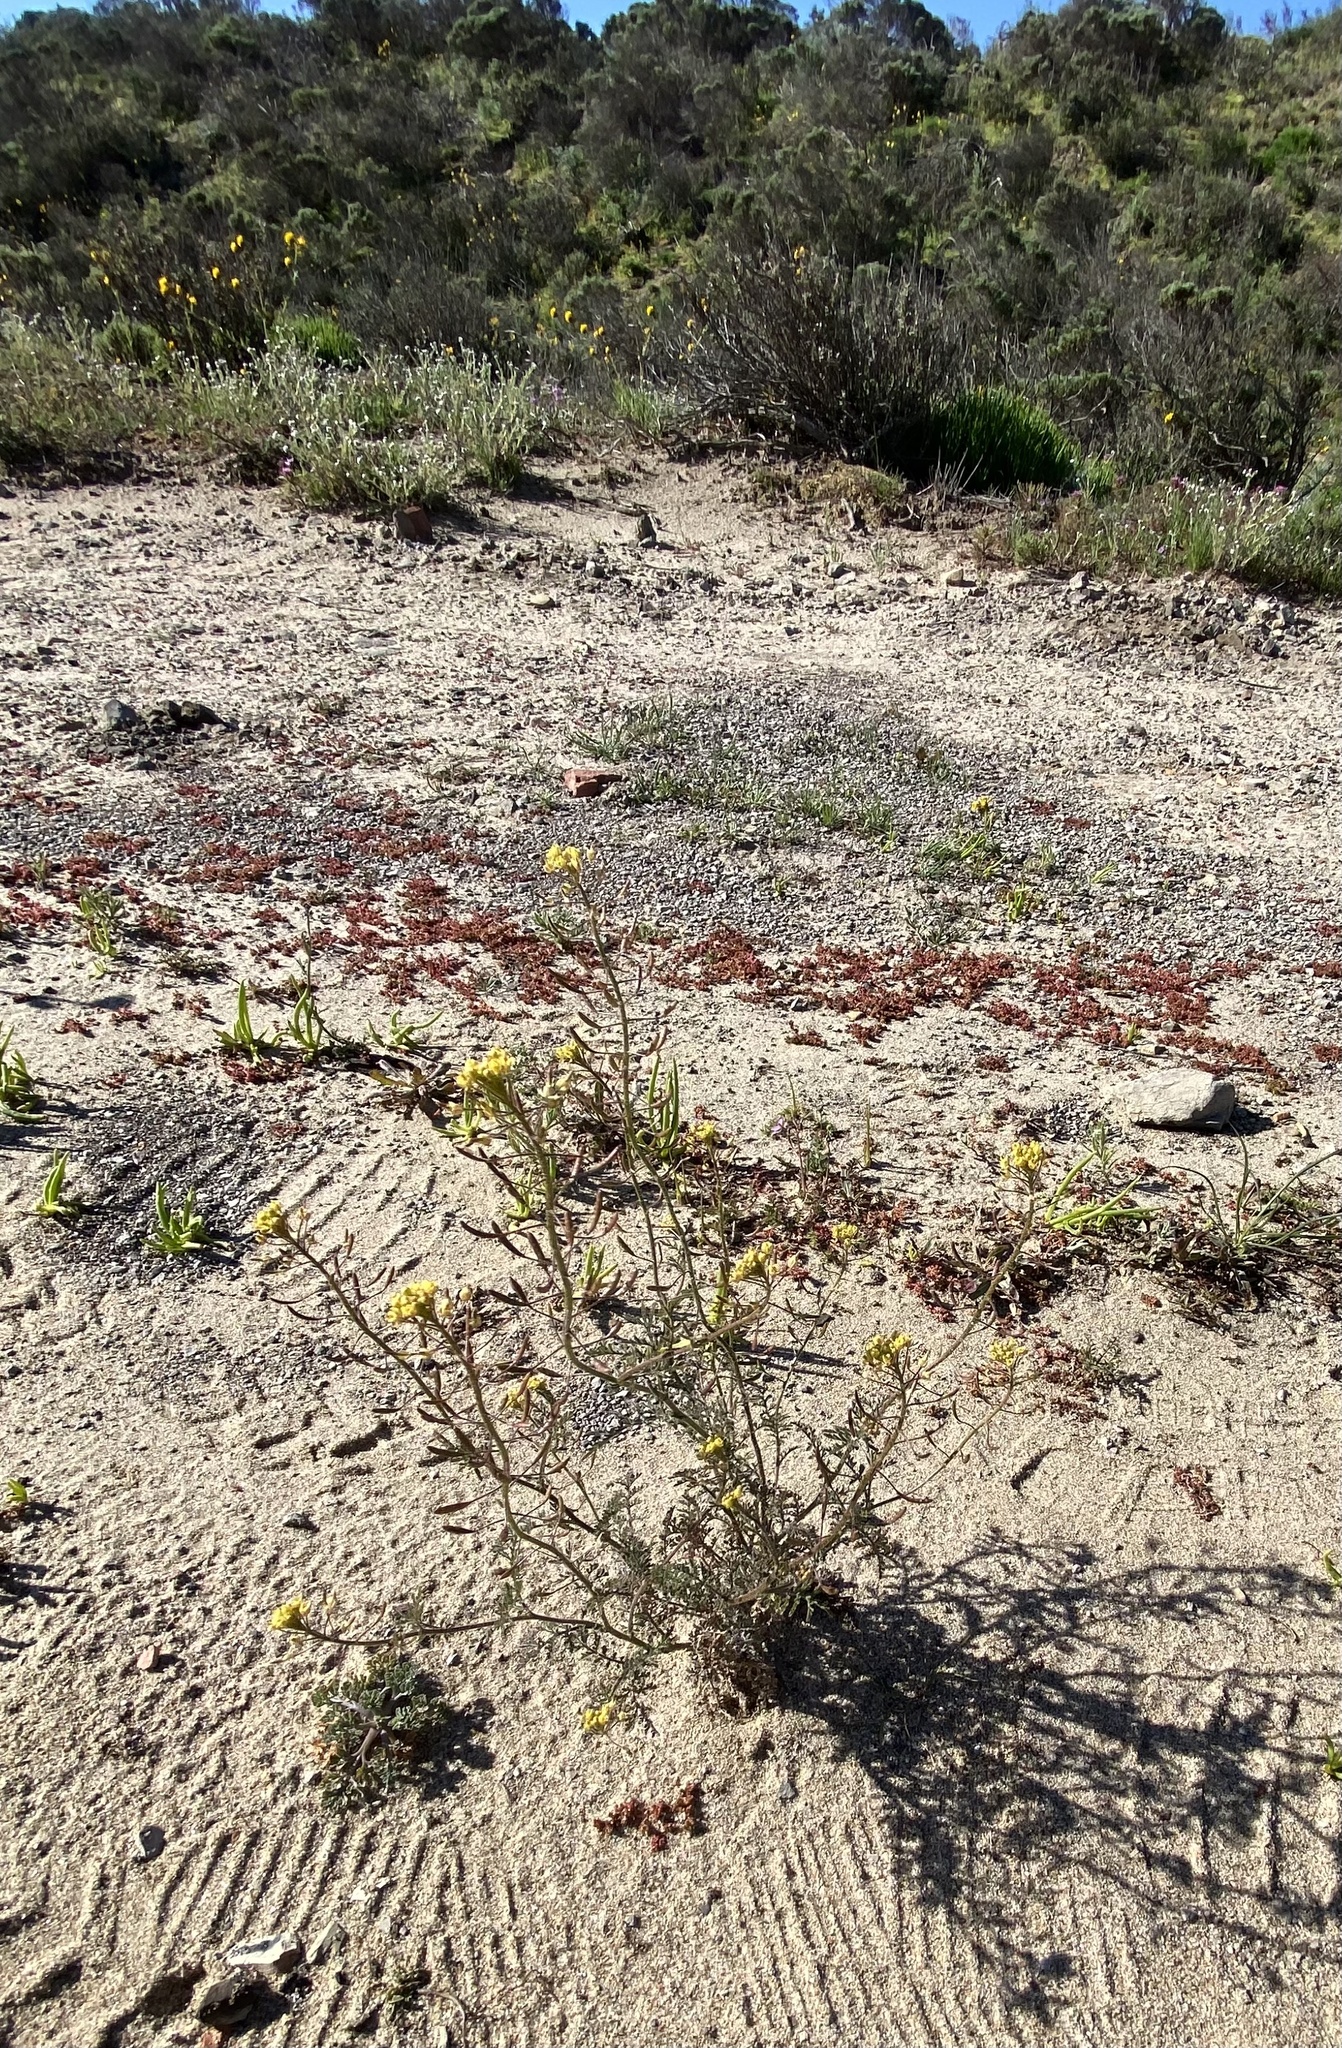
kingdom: Plantae
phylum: Tracheophyta
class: Magnoliopsida
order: Brassicales
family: Brassicaceae
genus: Descurainia
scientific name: Descurainia pinnata
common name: Western tansy mustard
